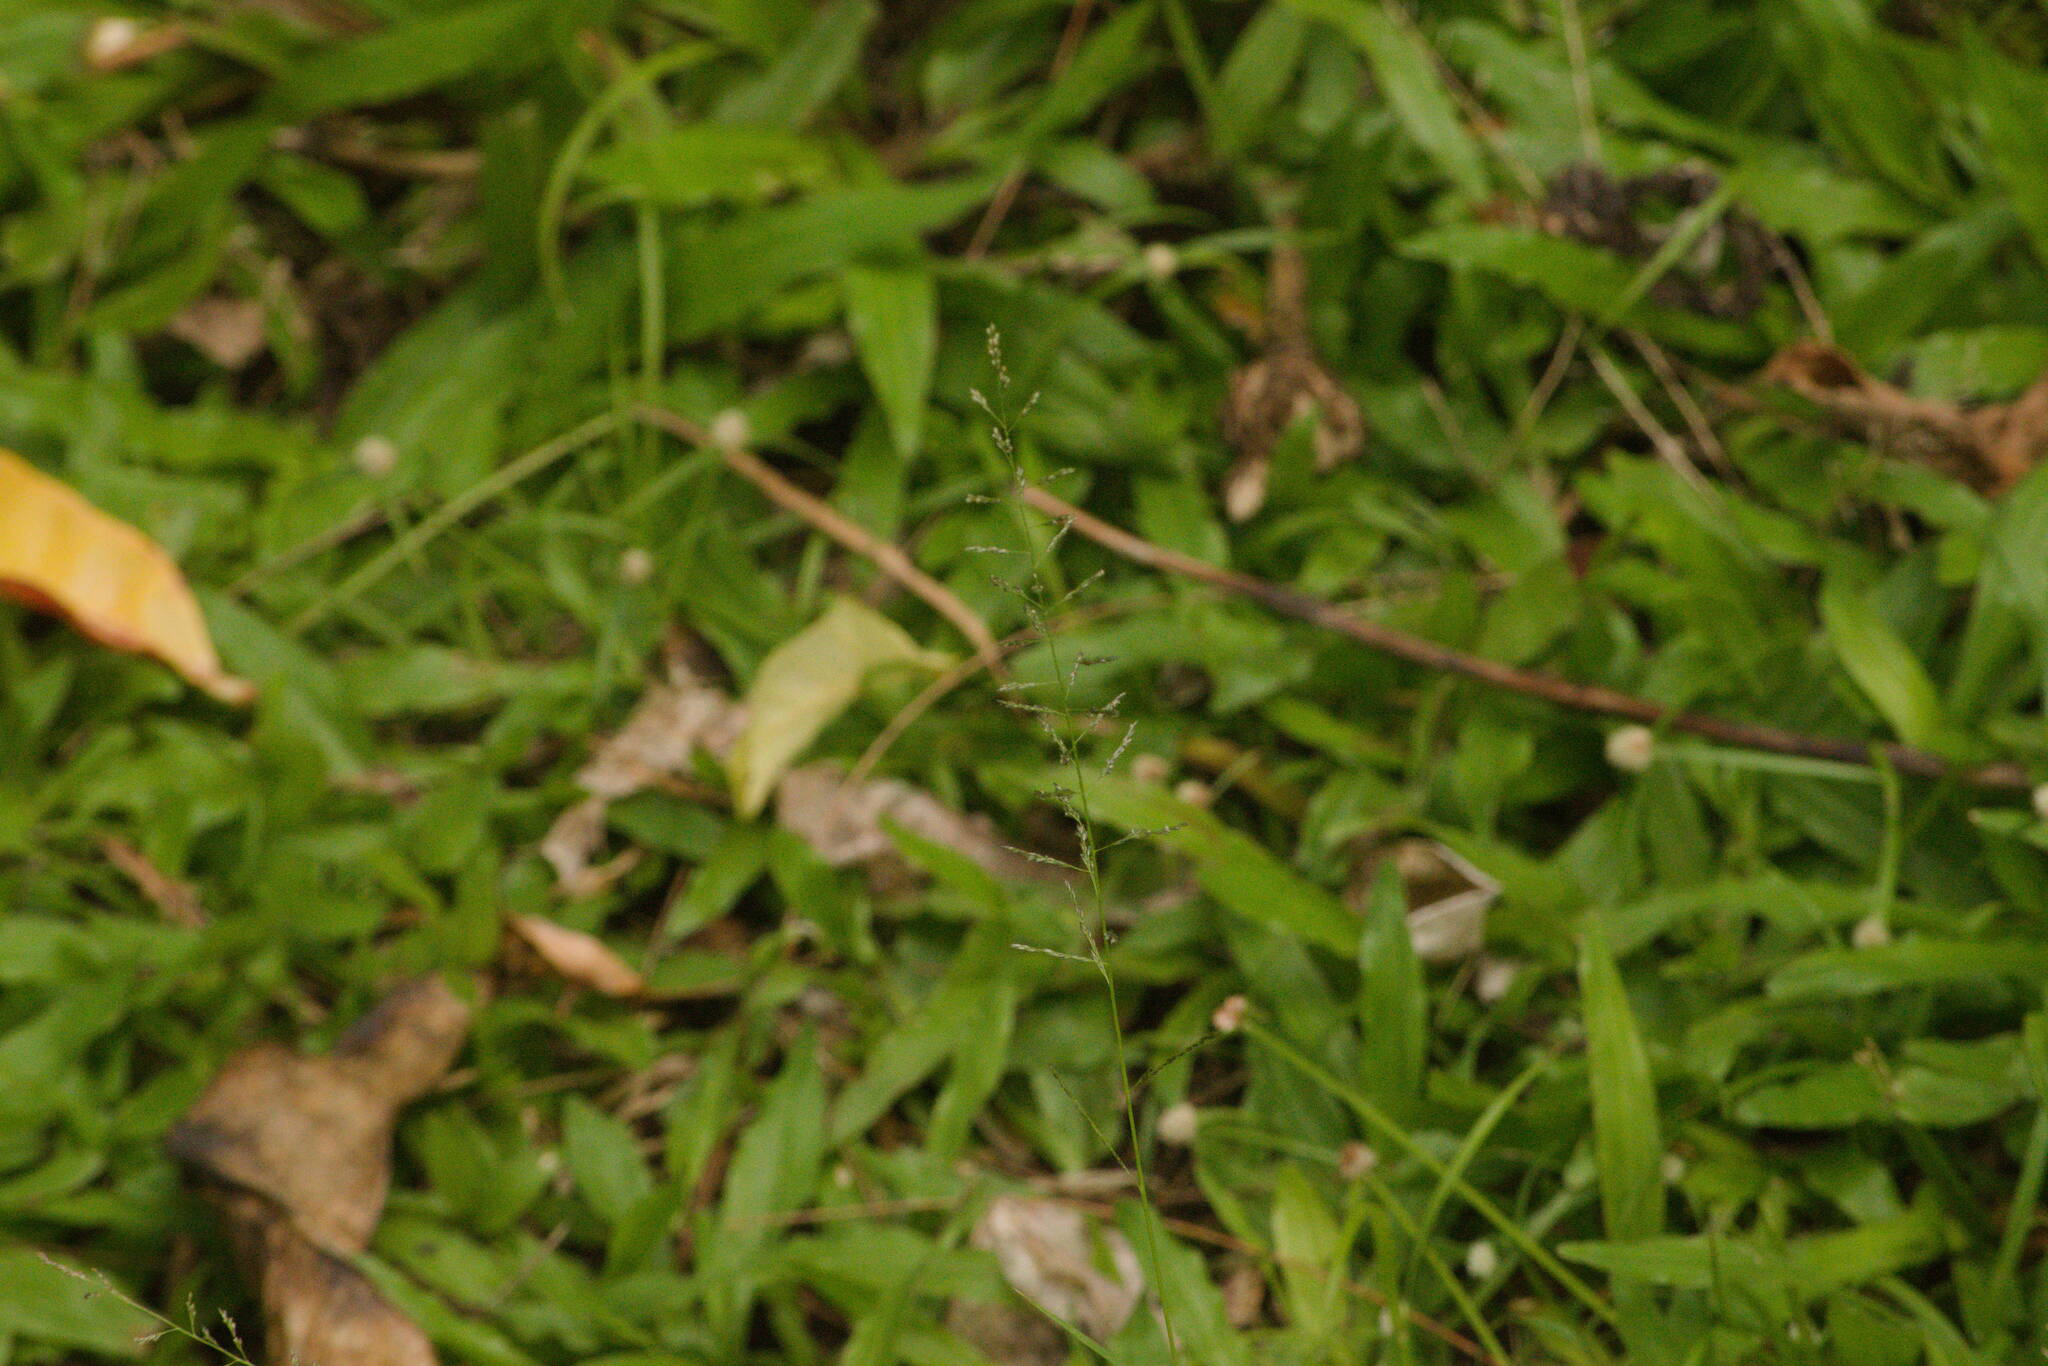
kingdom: Plantae
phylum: Tracheophyta
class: Liliopsida
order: Poales
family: Poaceae
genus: Sporobolus
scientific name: Sporobolus diandrus
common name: Tussock dropseed
